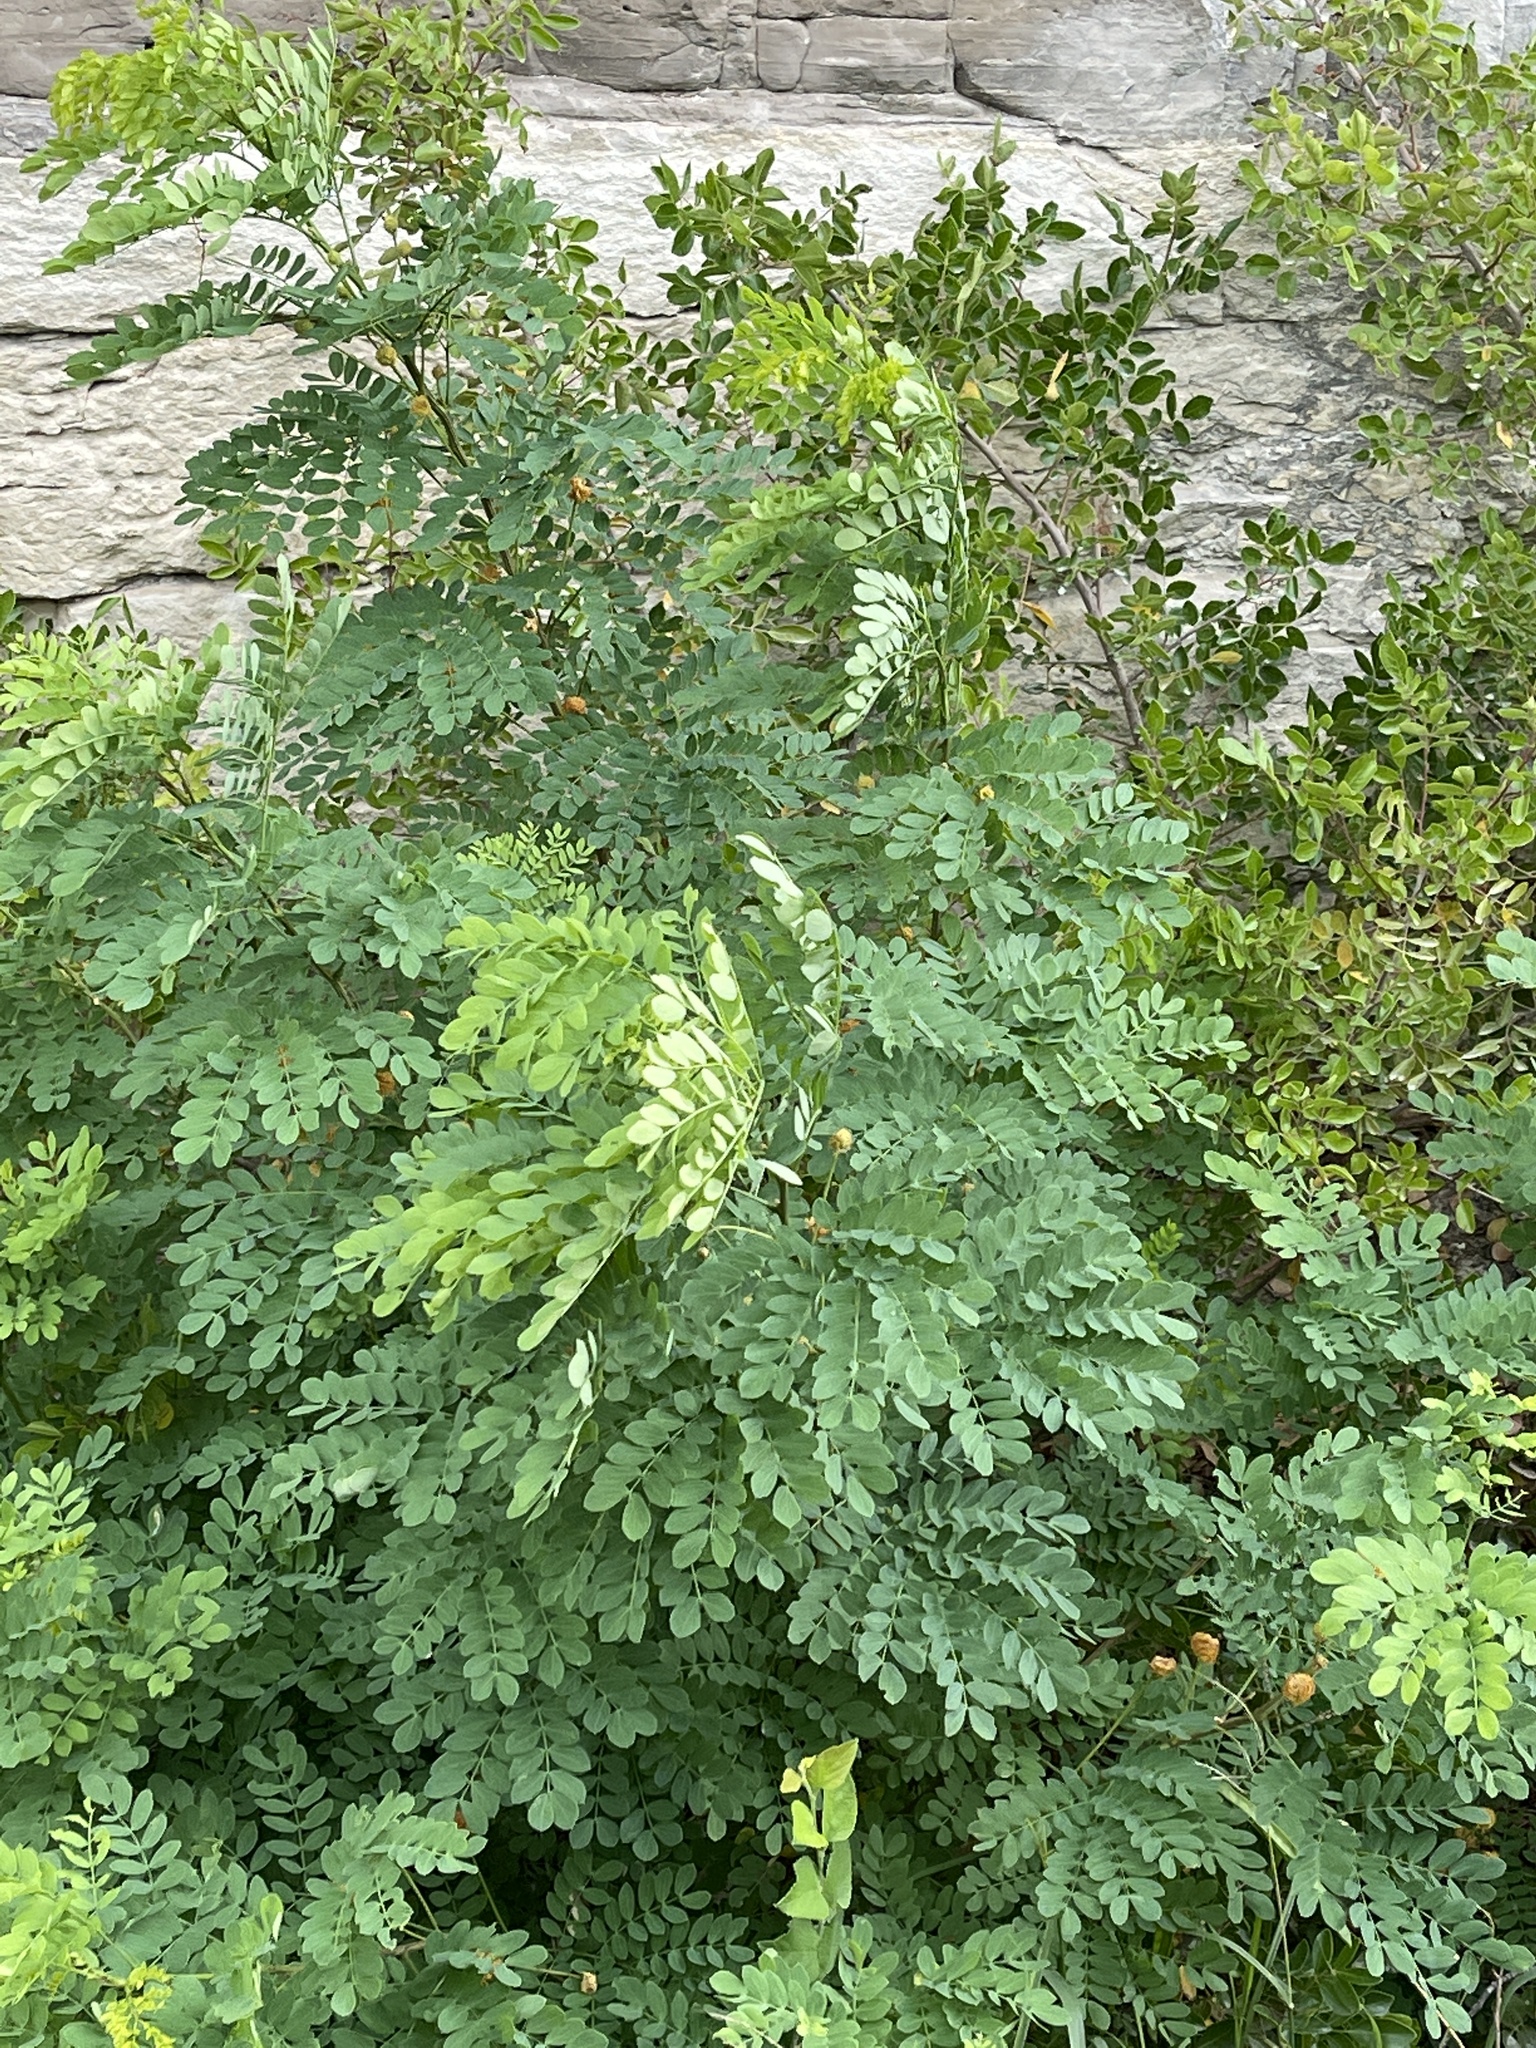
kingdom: Plantae
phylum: Tracheophyta
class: Magnoliopsida
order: Fabales
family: Fabaceae
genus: Leucaena
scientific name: Leucaena retusa
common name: Littleleaf leadtree
